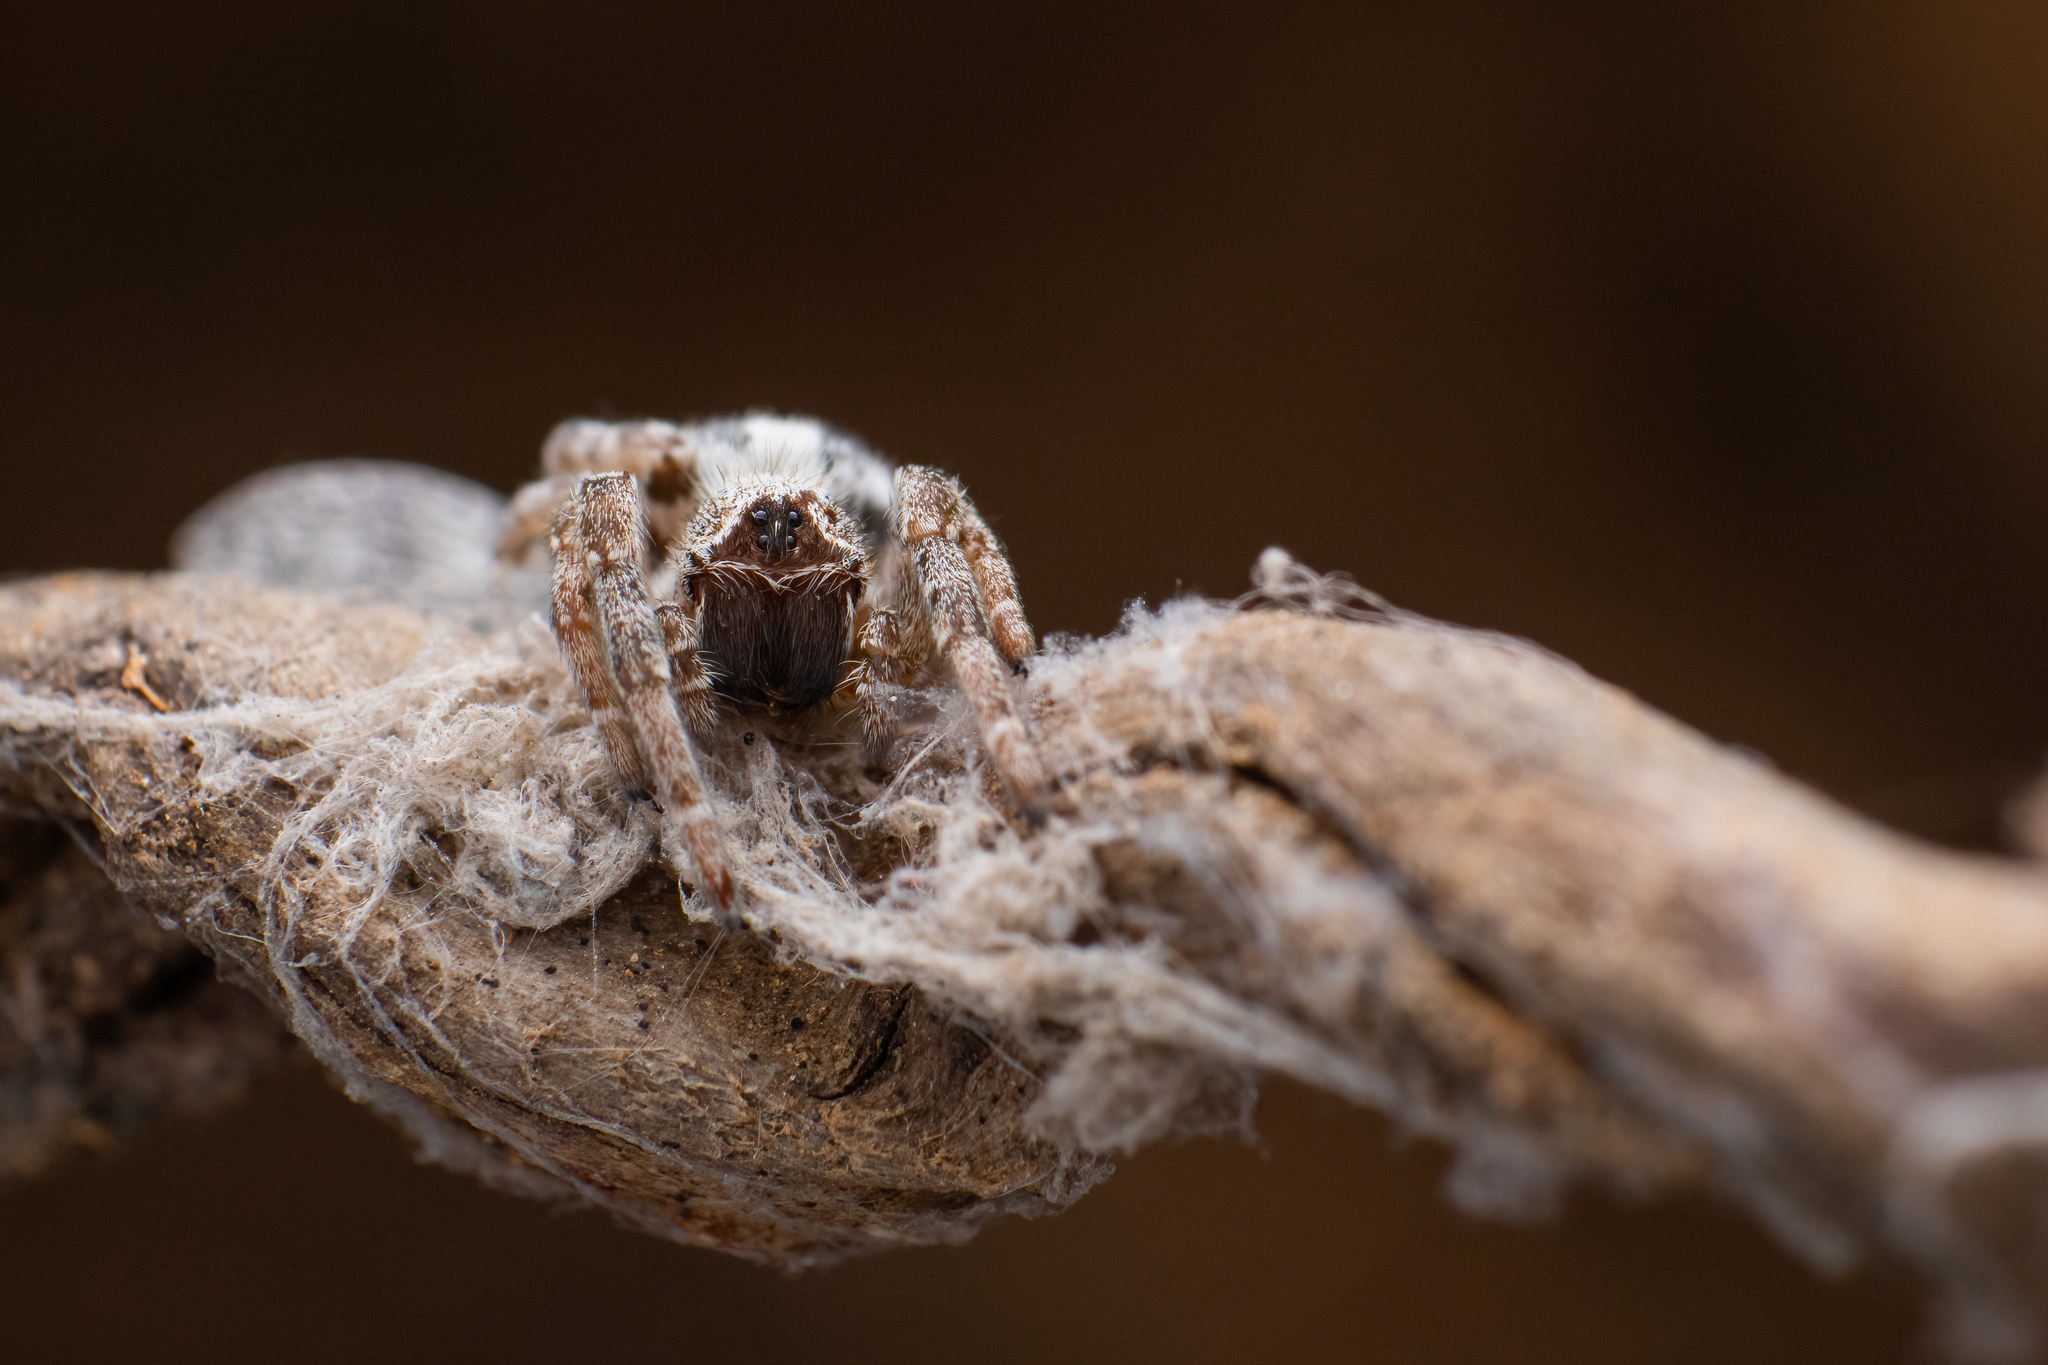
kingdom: Animalia
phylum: Arthropoda
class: Arachnida
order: Araneae
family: Eresidae
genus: Stegodyphus
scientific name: Stegodyphus sarasinorum
